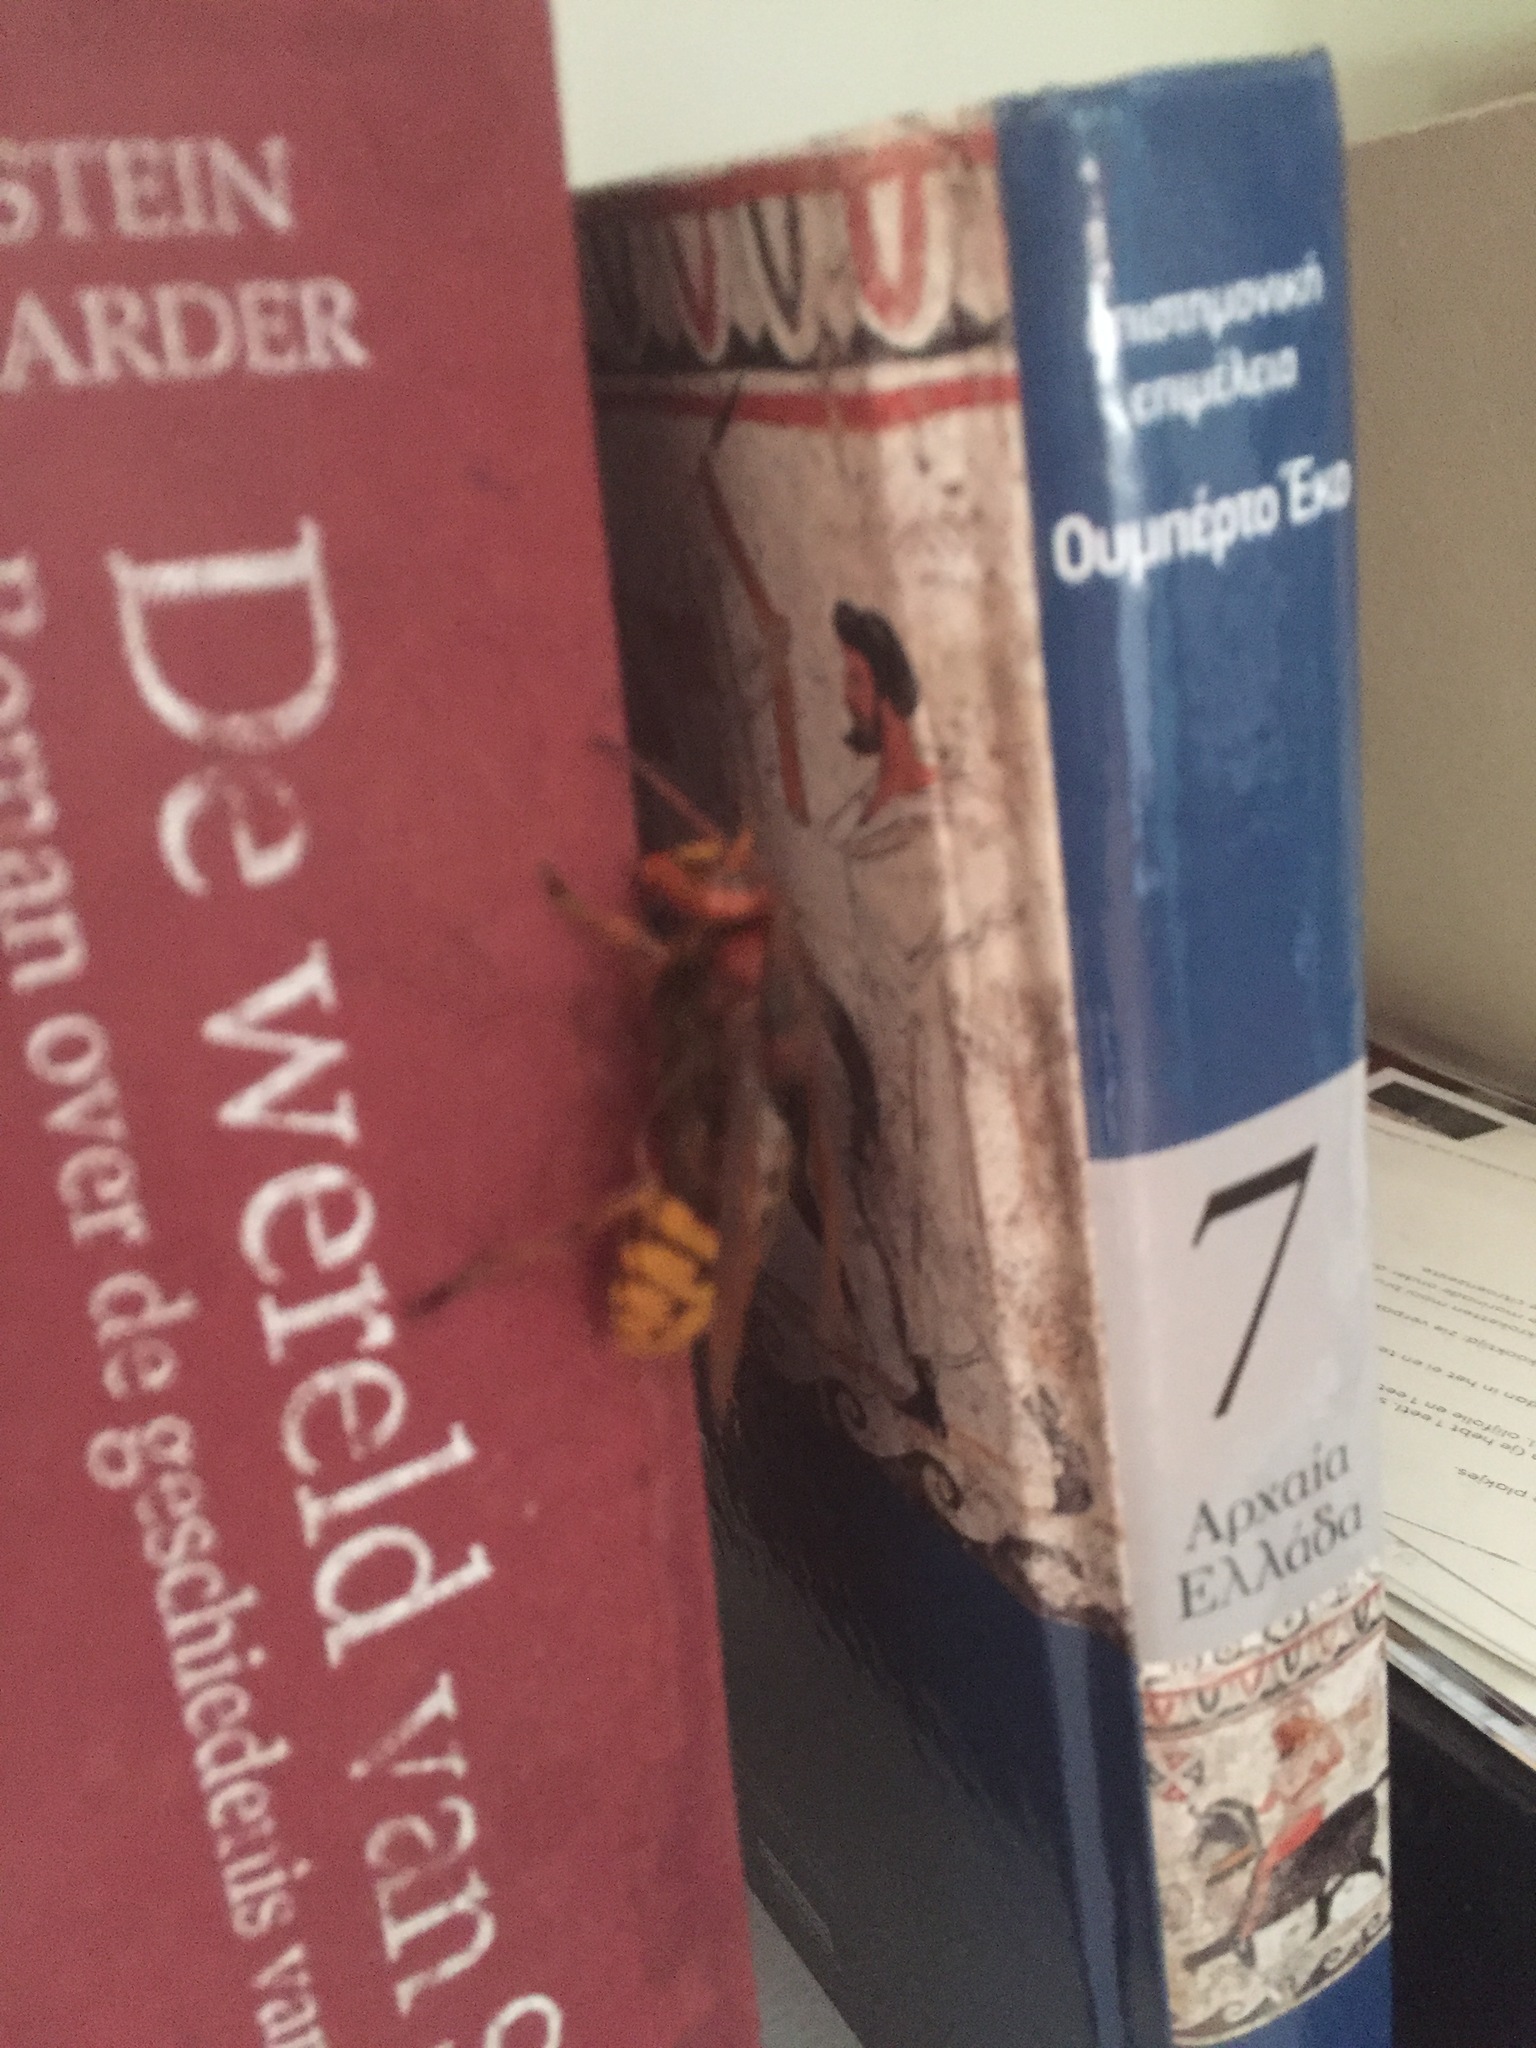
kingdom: Animalia
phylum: Arthropoda
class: Insecta
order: Hymenoptera
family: Vespidae
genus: Vespa
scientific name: Vespa crabro
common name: Hornet
